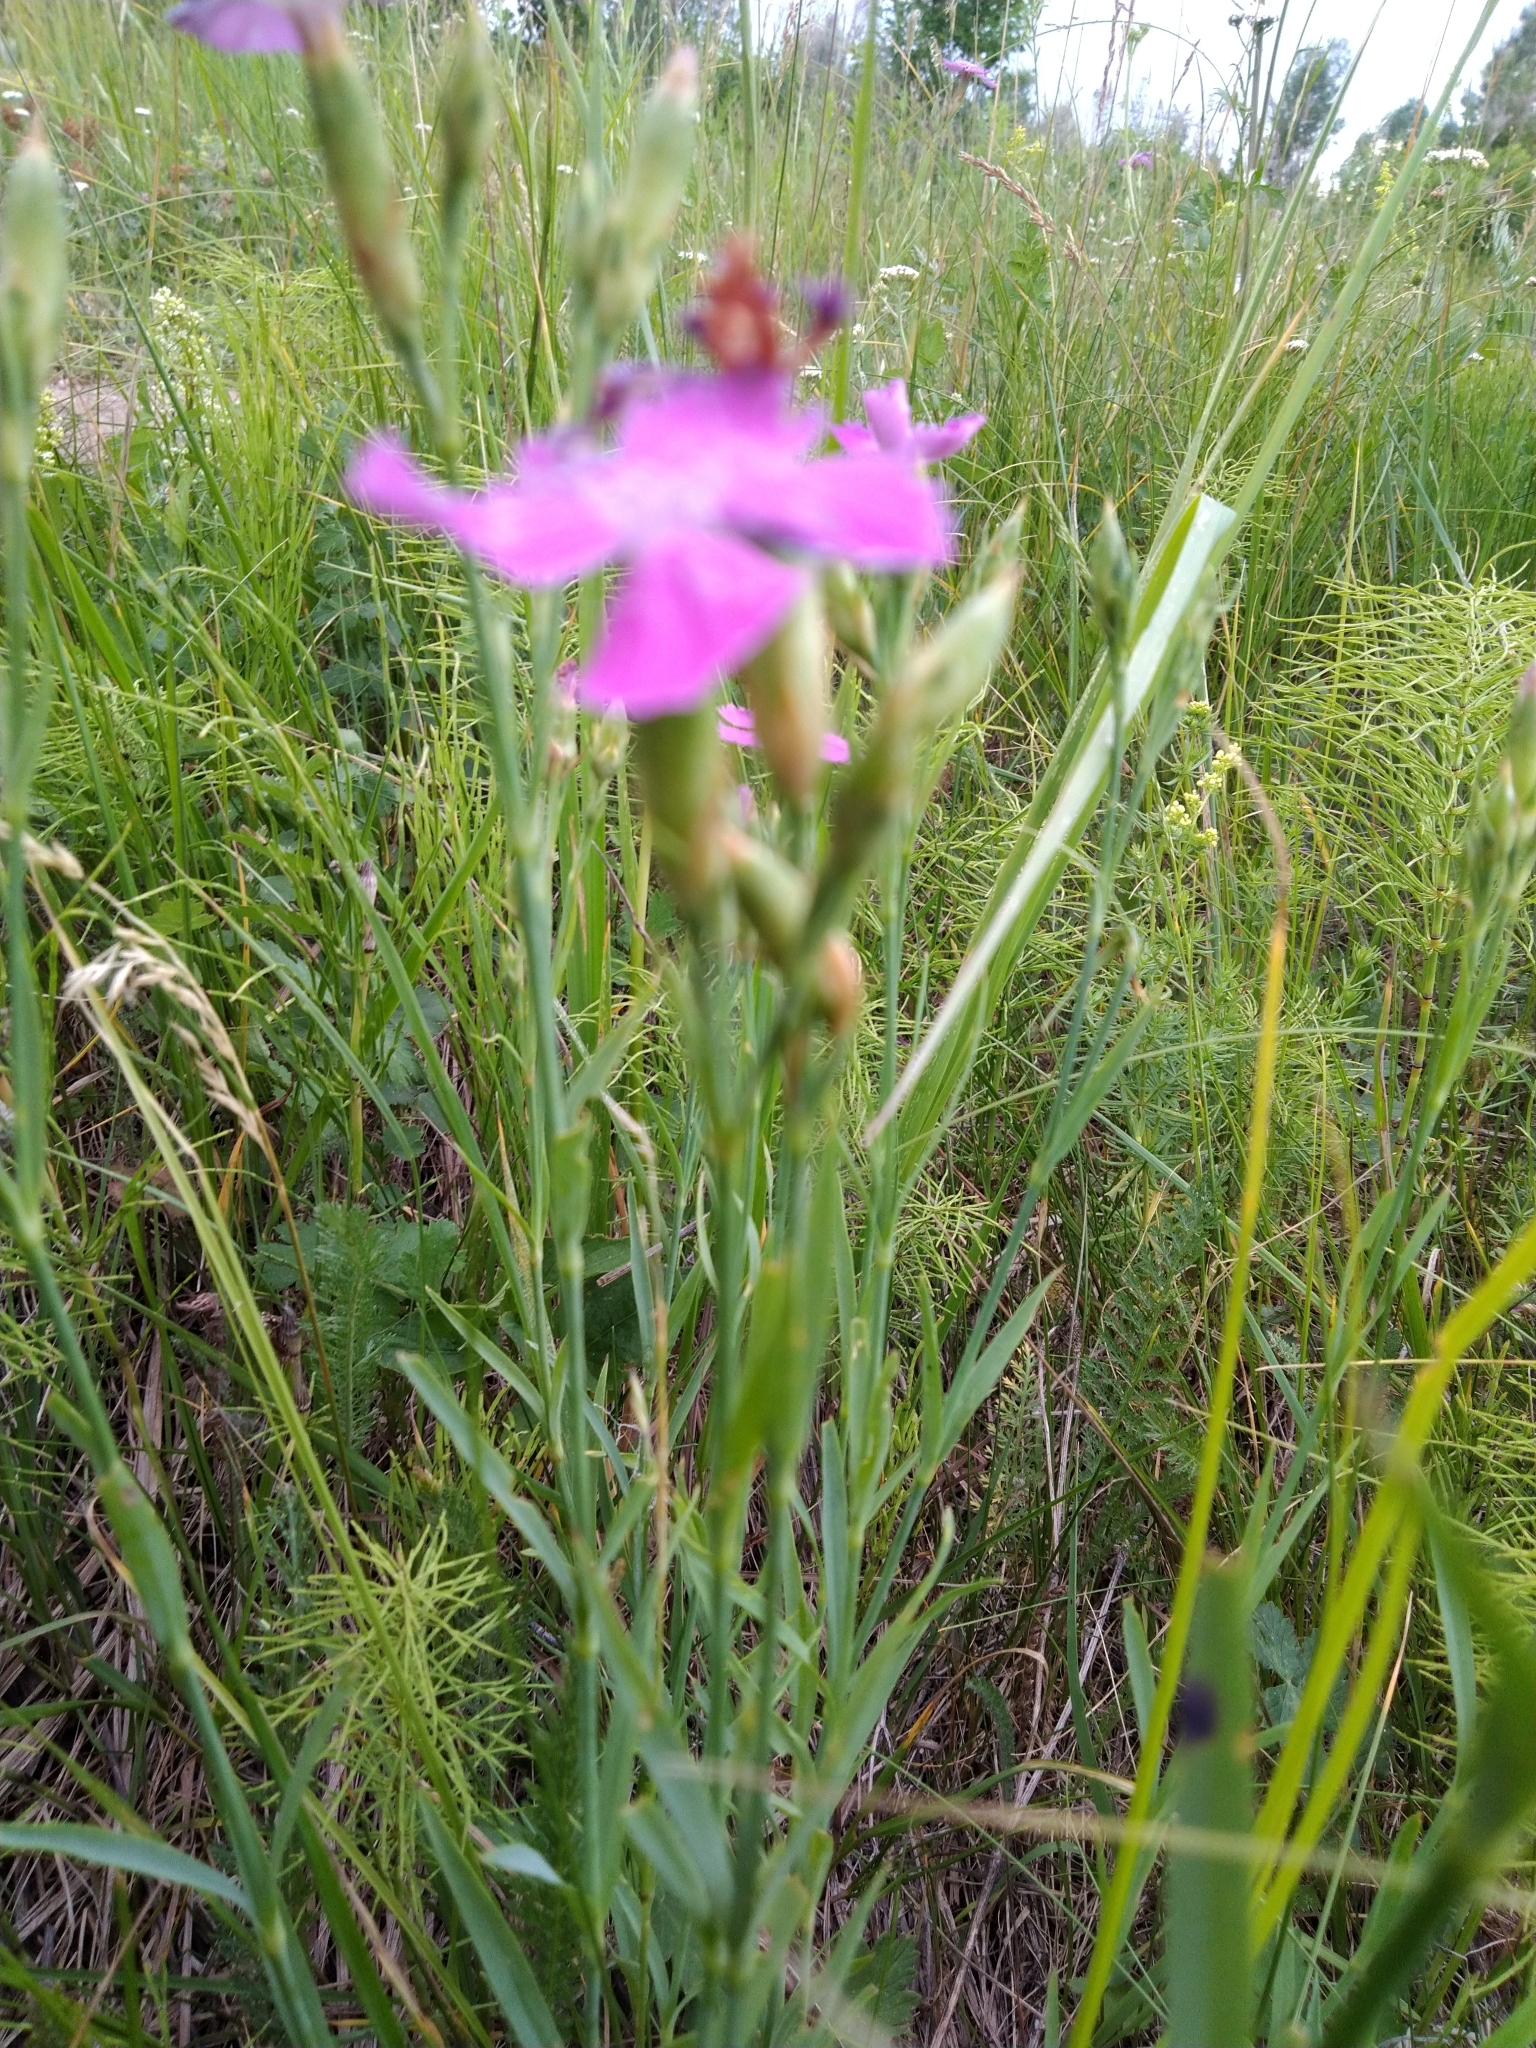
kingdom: Plantae
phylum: Tracheophyta
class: Magnoliopsida
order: Caryophyllales
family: Caryophyllaceae
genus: Dianthus
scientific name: Dianthus chinensis
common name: Rainbow pink
